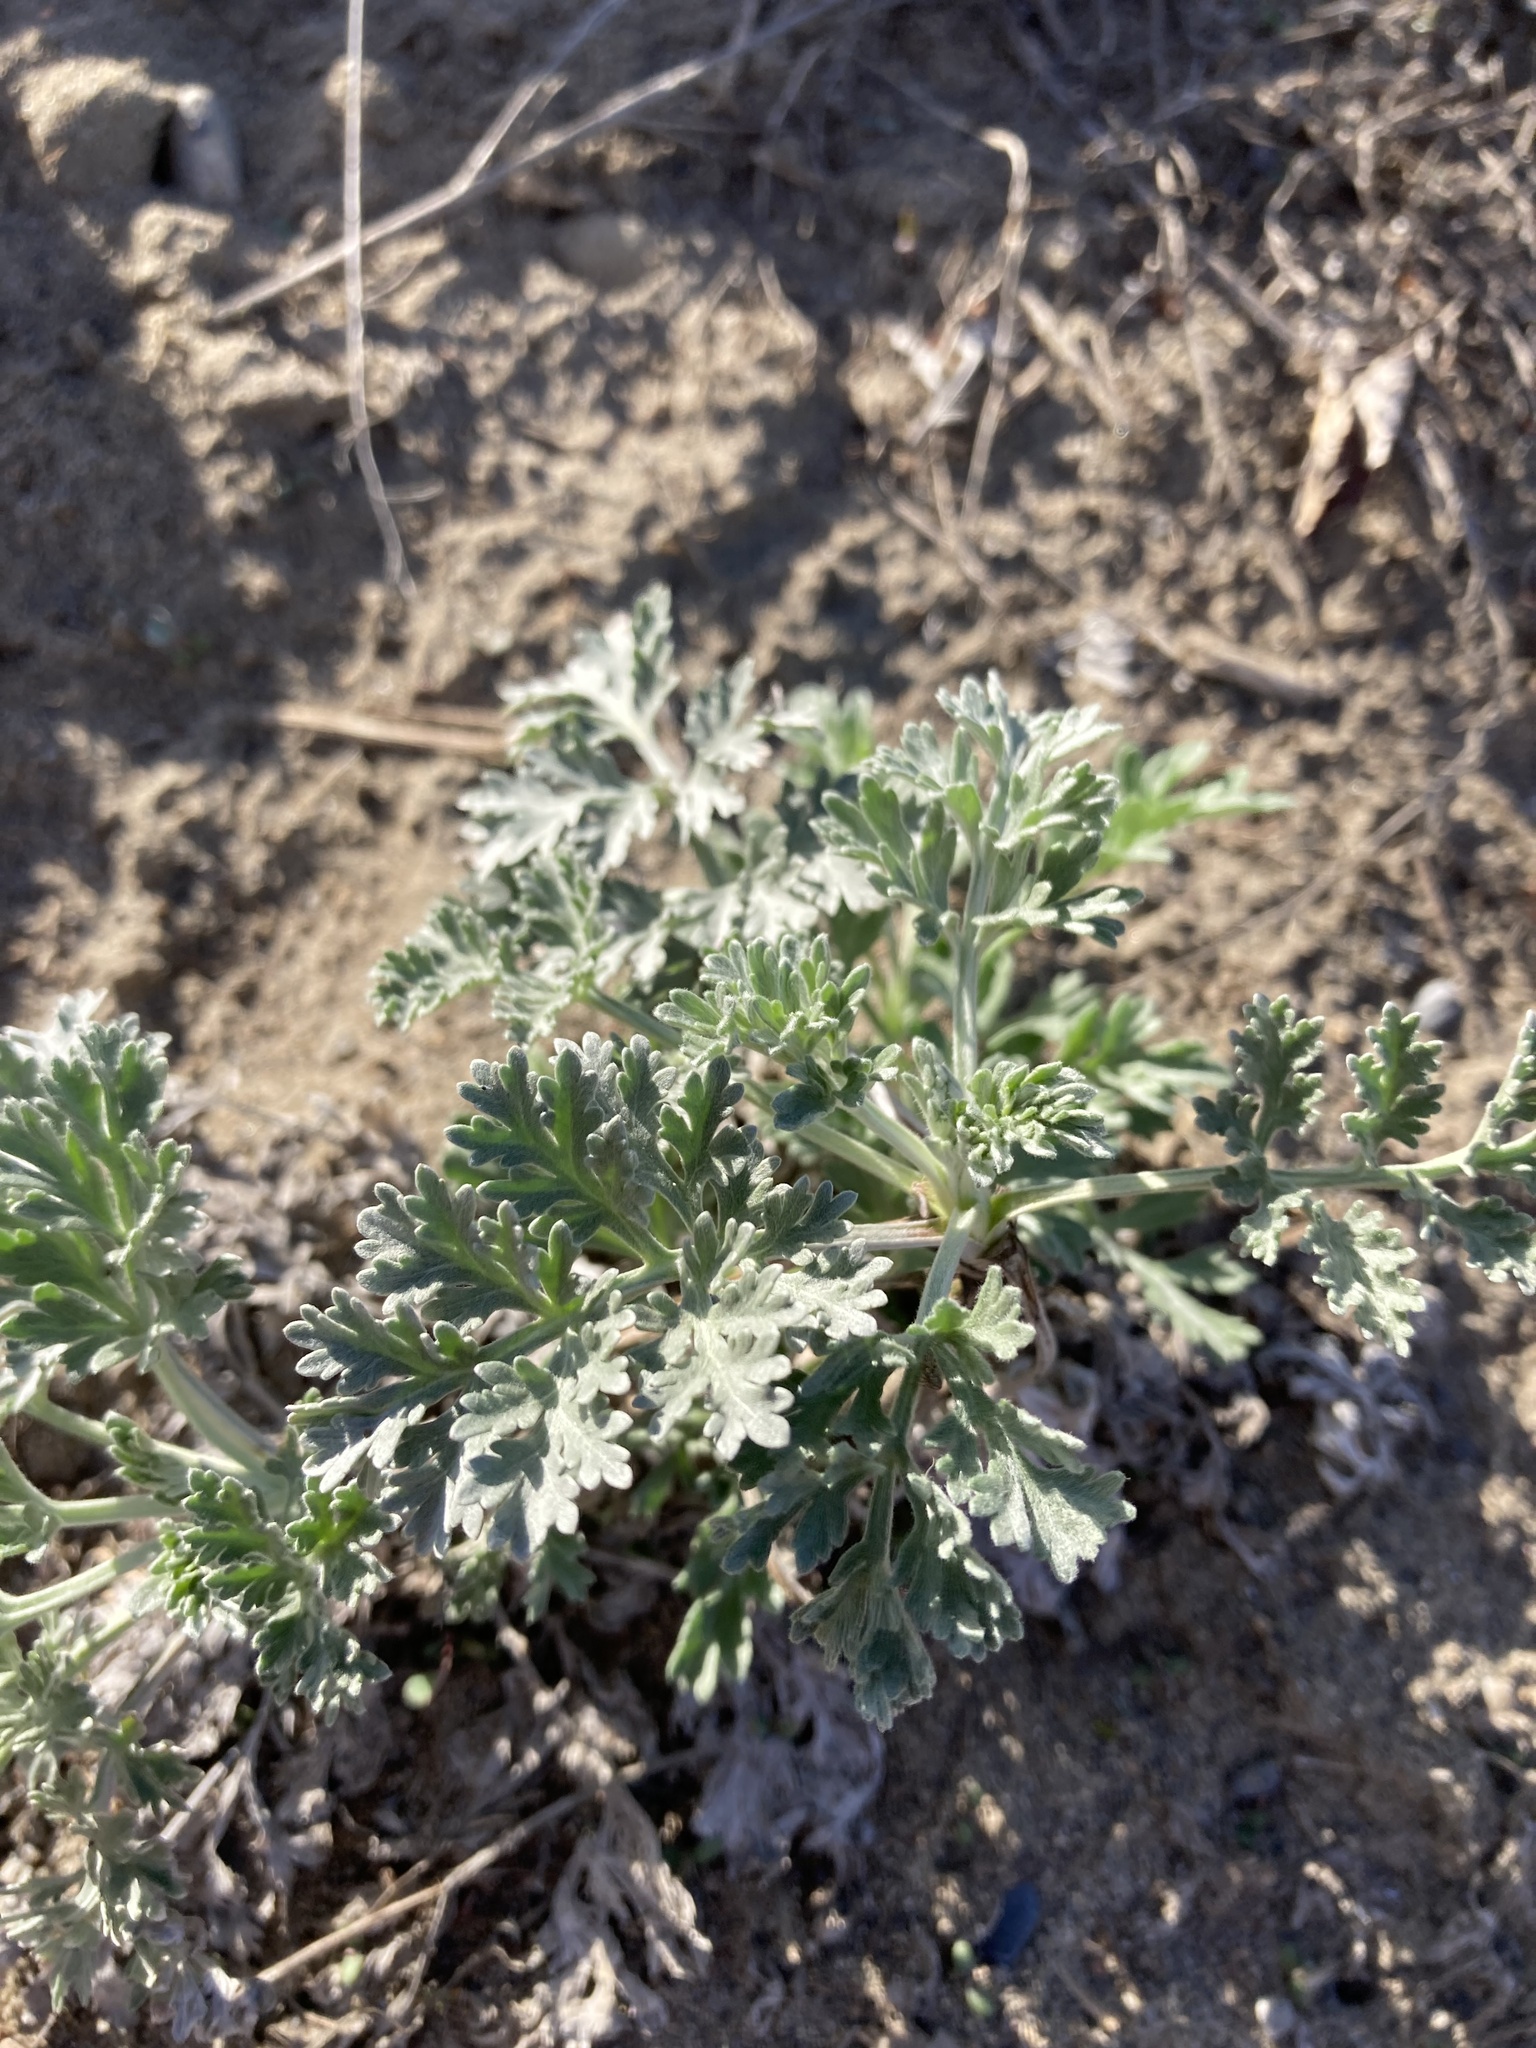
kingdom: Plantae
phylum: Tracheophyta
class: Magnoliopsida
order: Asterales
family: Asteraceae
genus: Artemisia
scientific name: Artemisia absinthium
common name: Wormwood
